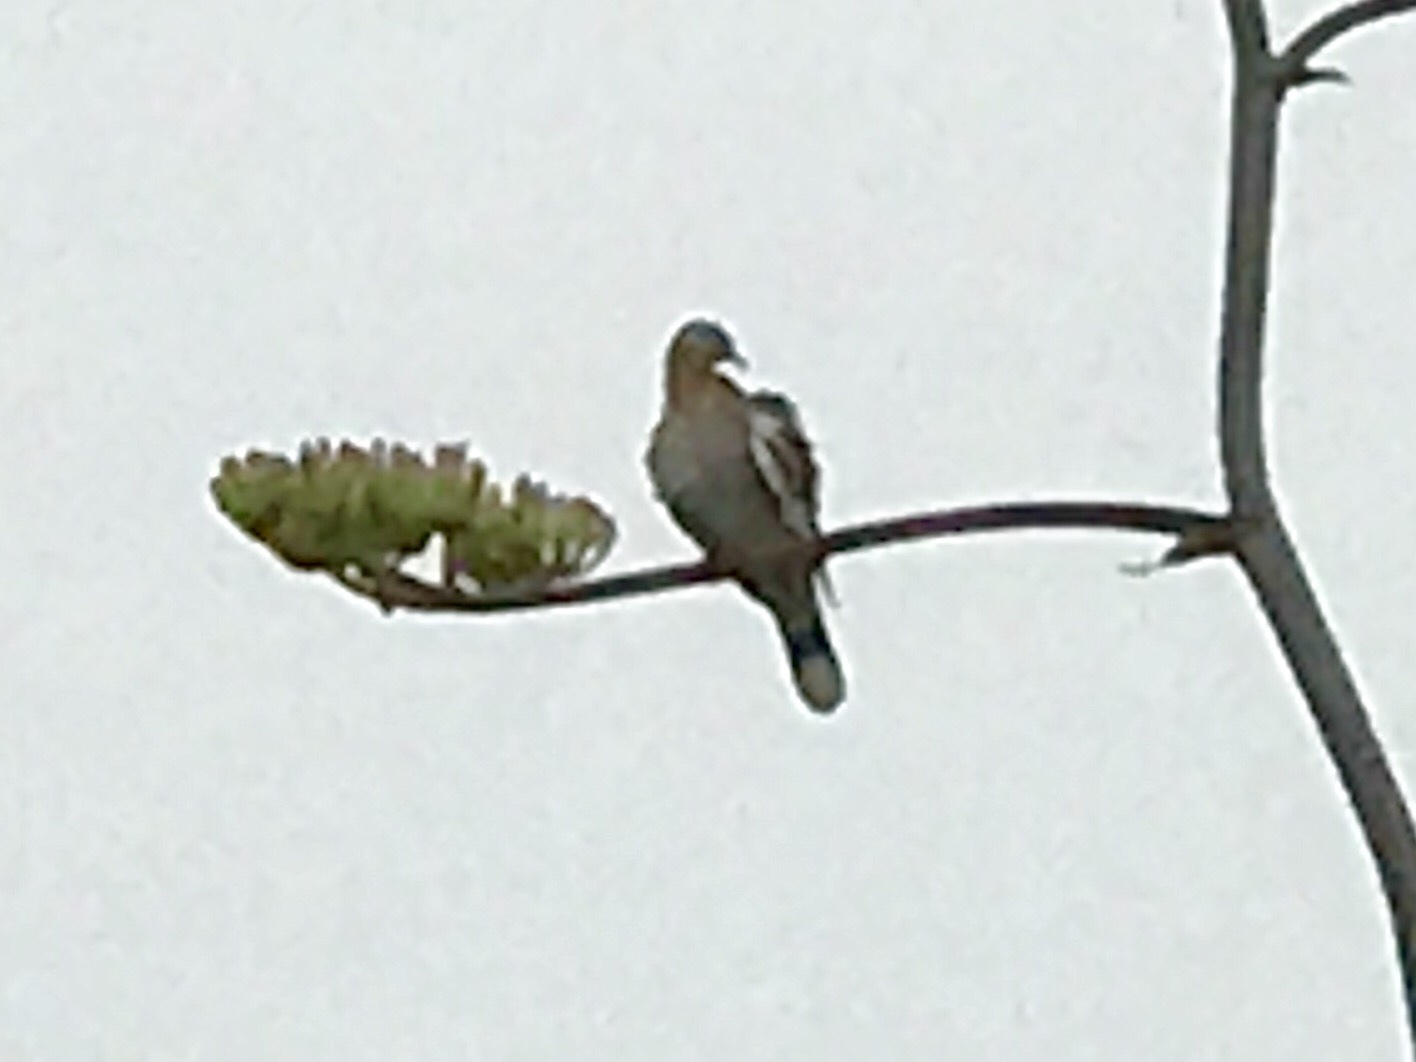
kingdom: Animalia
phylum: Chordata
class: Aves
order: Columbiformes
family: Columbidae
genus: Zenaida
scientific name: Zenaida asiatica
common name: White-winged dove
